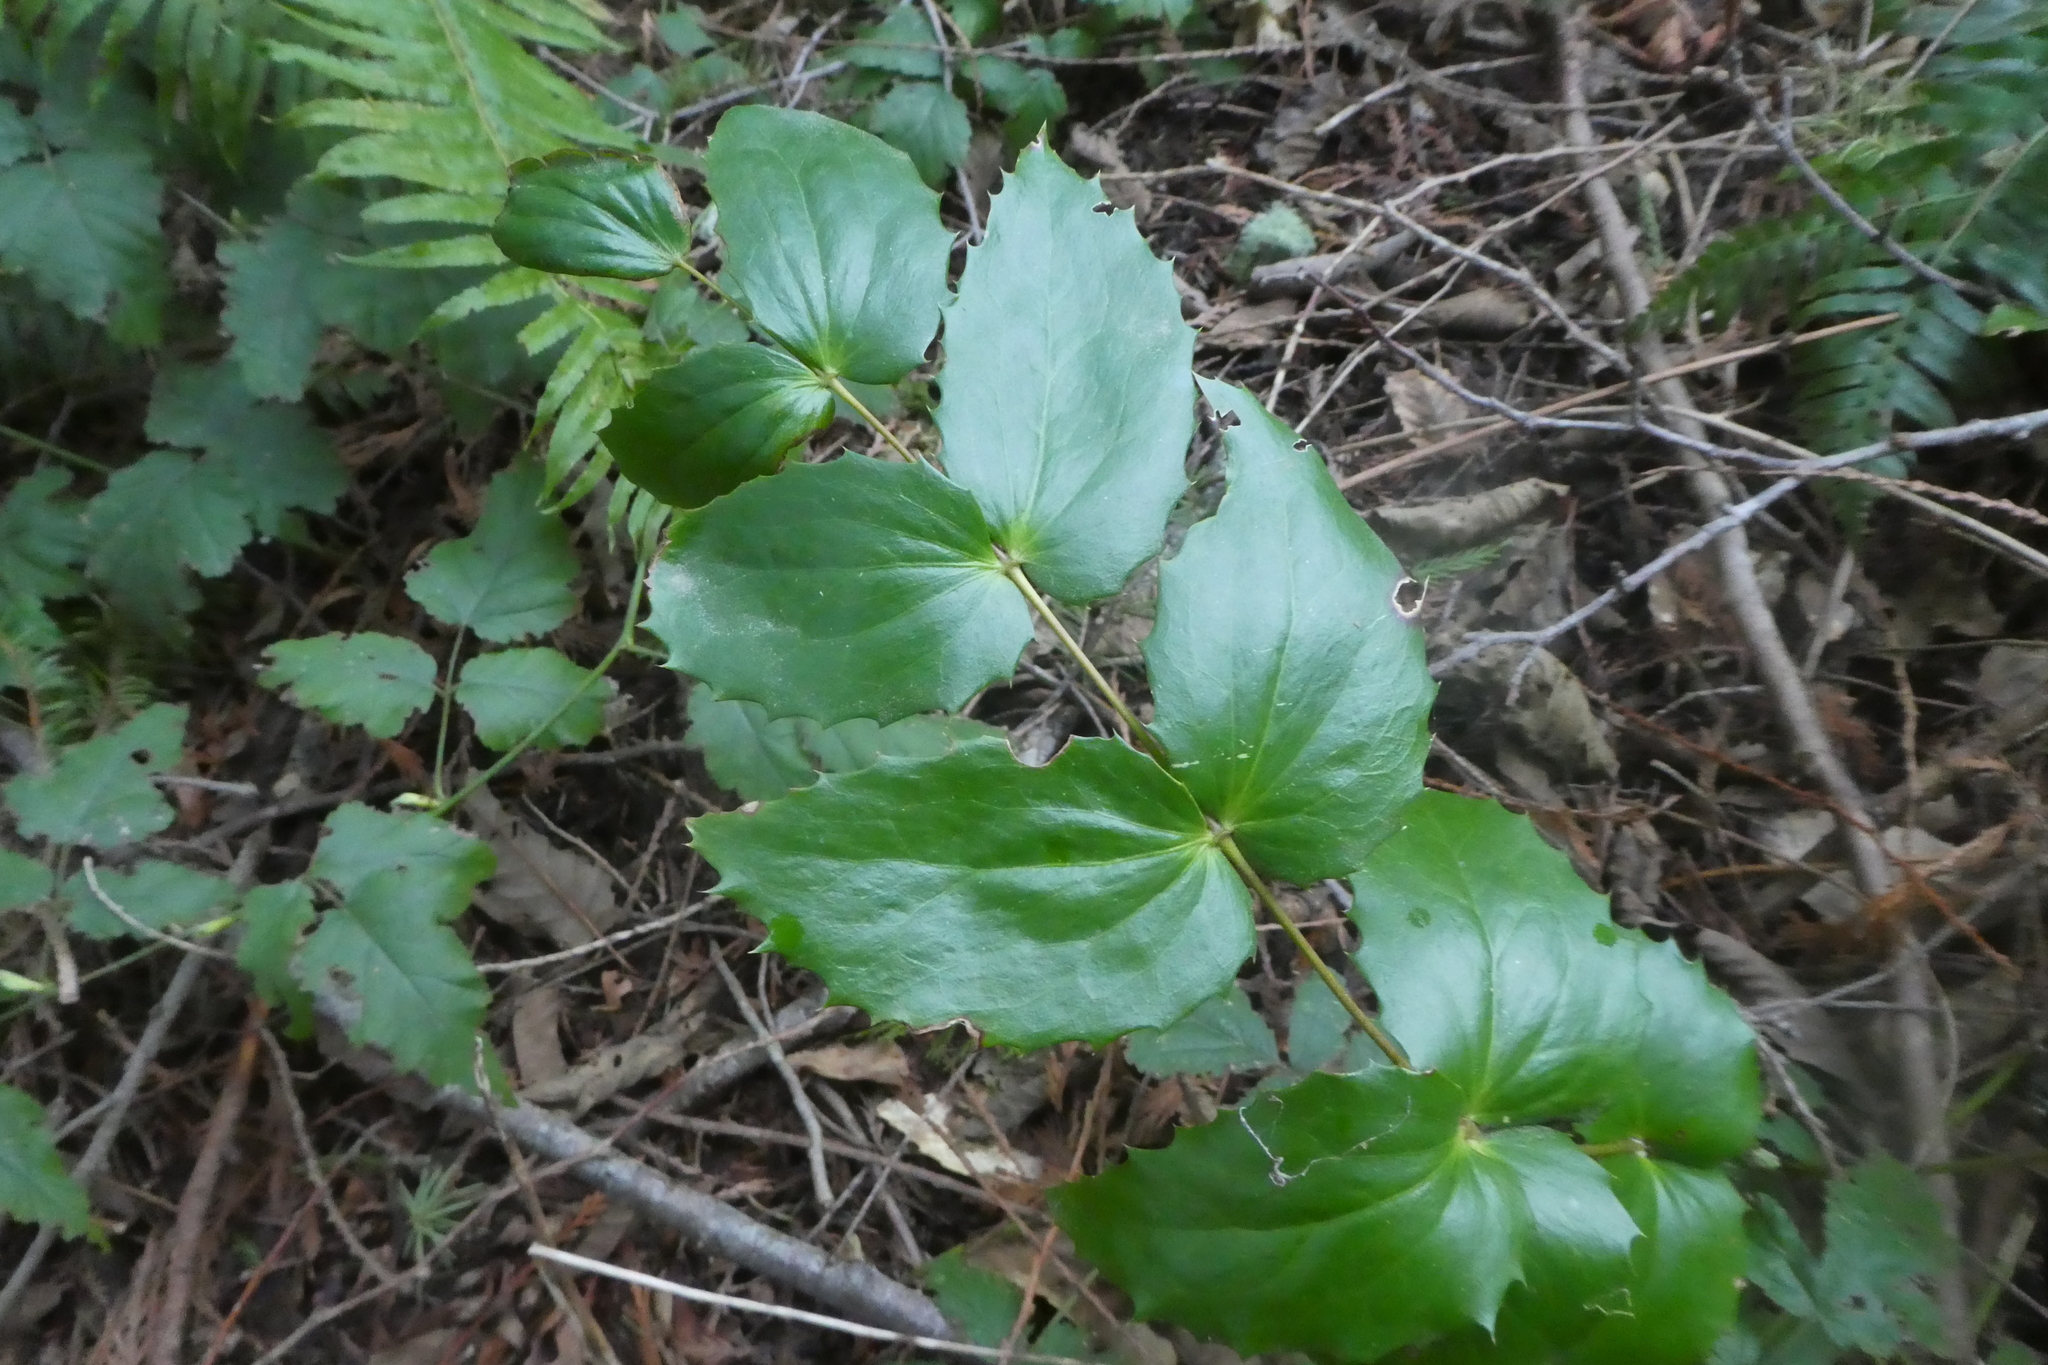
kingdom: Plantae
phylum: Tracheophyta
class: Magnoliopsida
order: Ranunculales
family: Berberidaceae
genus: Mahonia
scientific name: Mahonia nervosa
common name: Cascade oregon-grape
